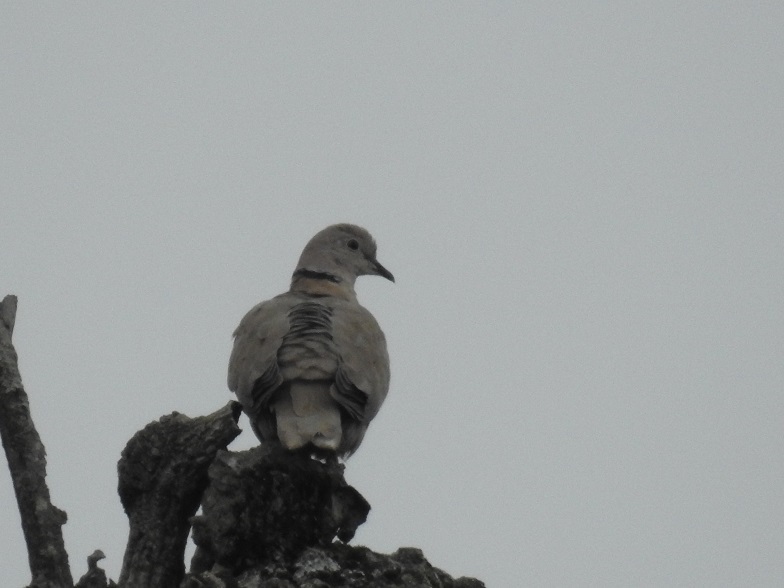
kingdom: Animalia
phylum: Chordata
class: Aves
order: Columbiformes
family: Columbidae
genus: Streptopelia
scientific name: Streptopelia decaocto
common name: Eurasian collared dove
